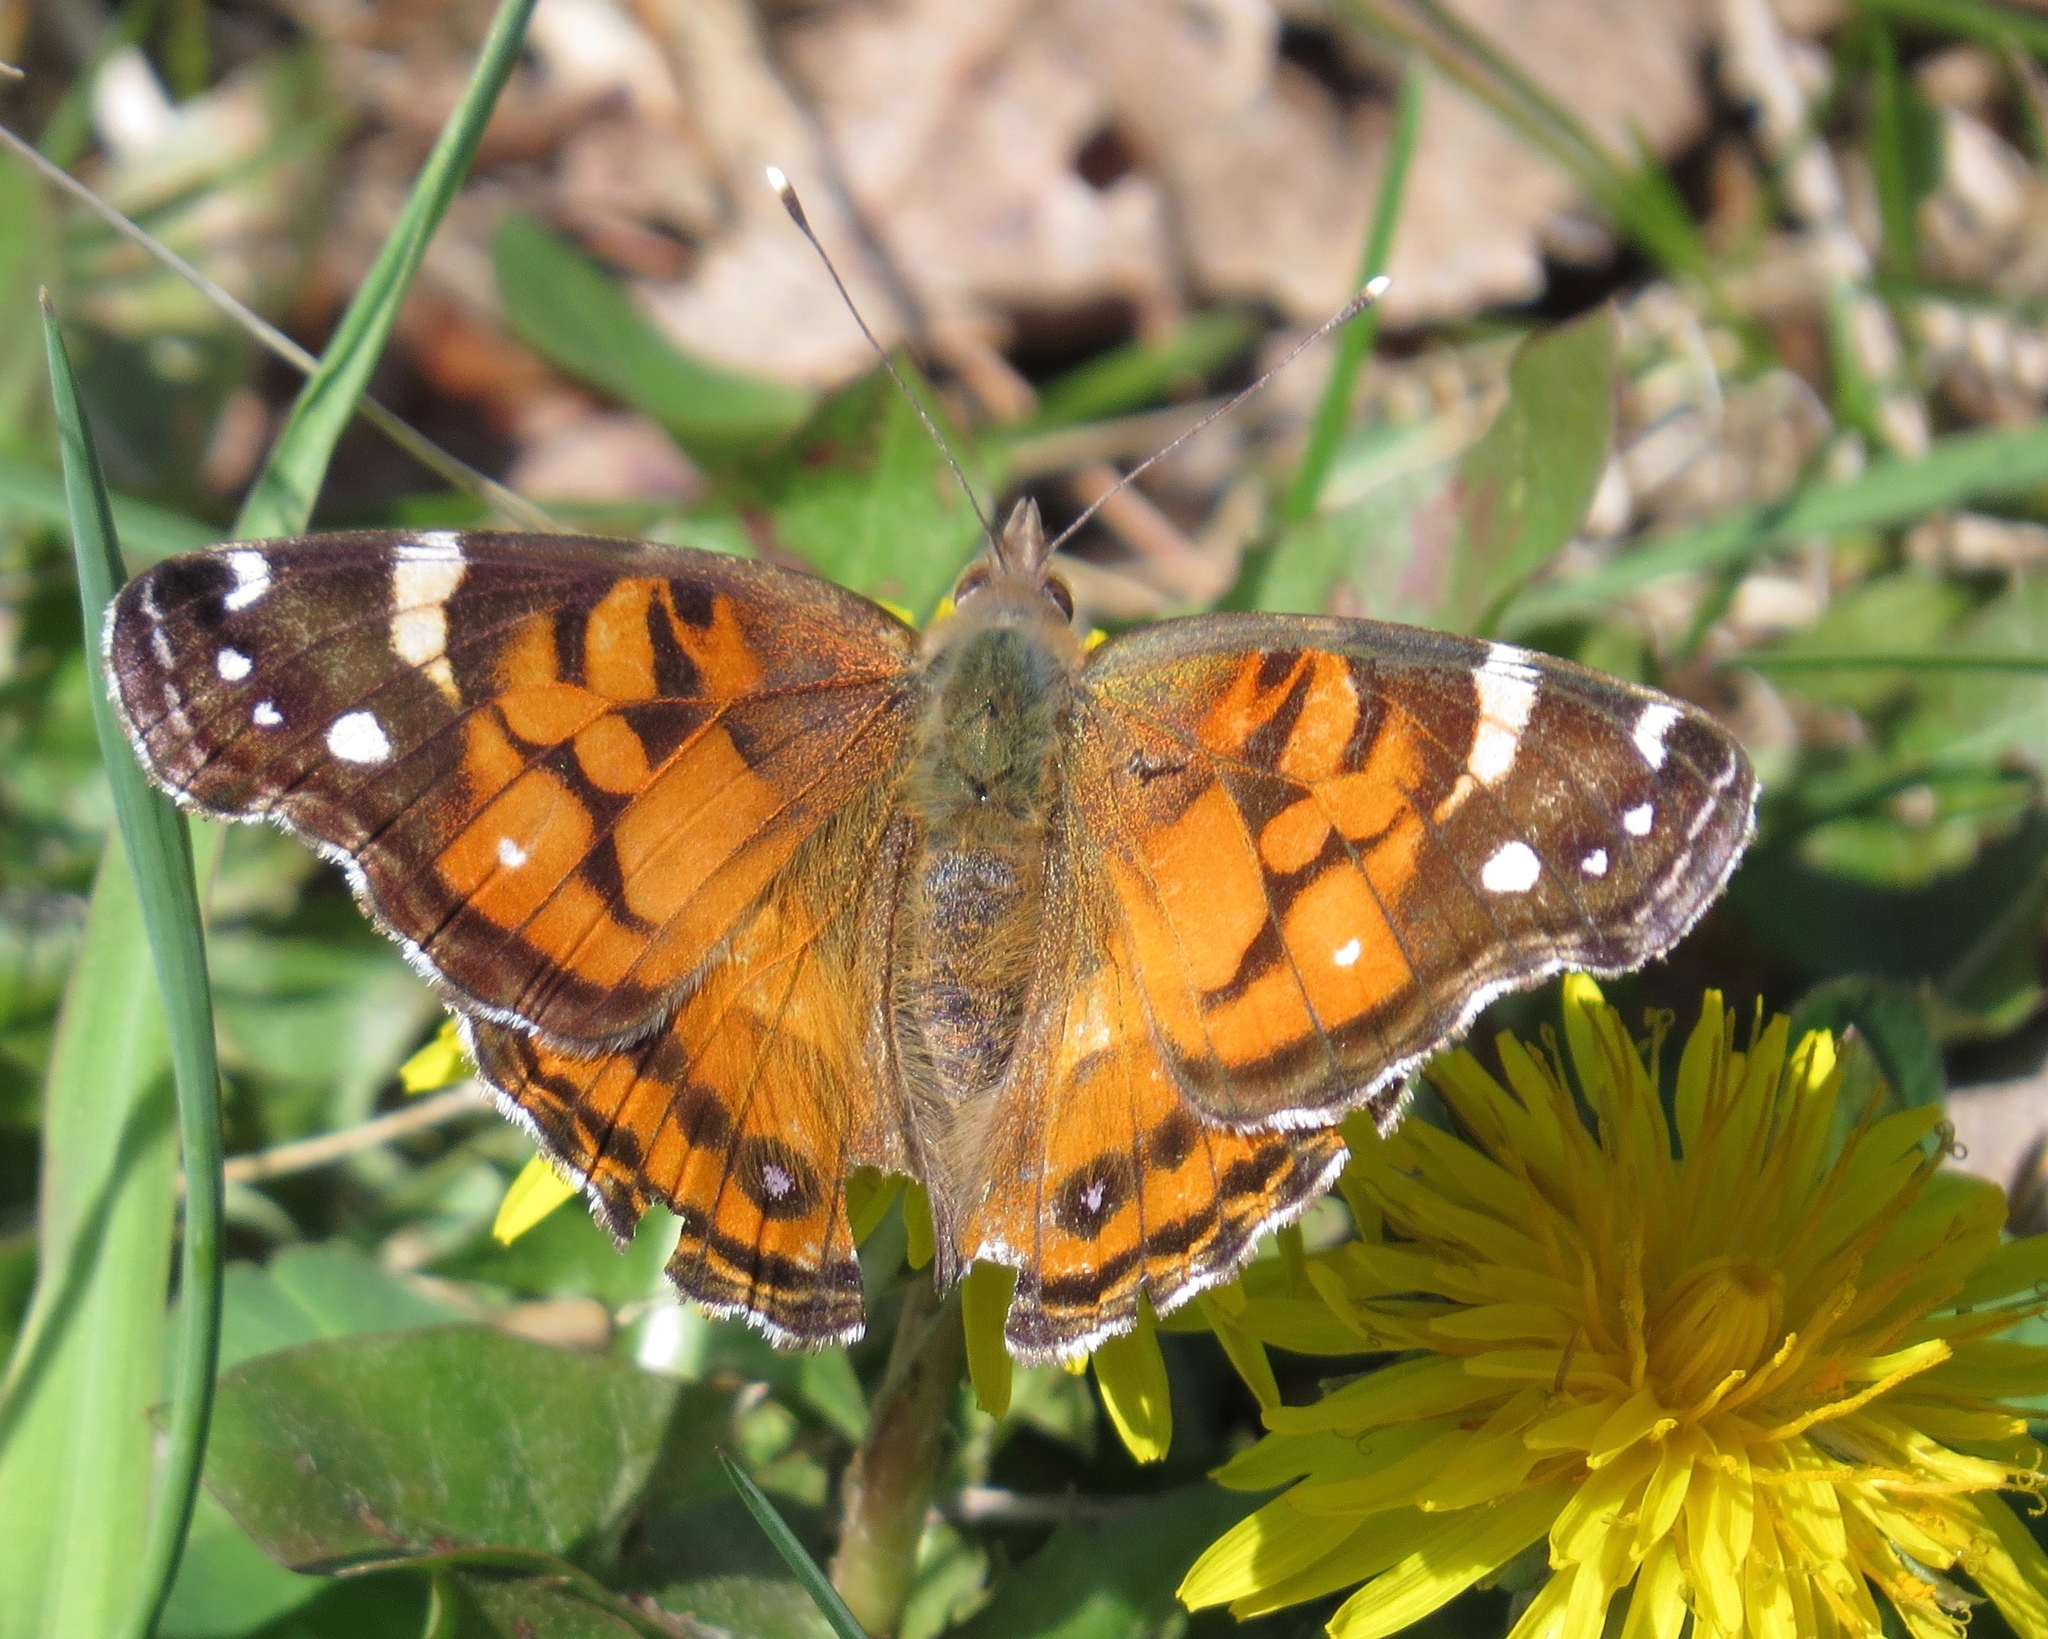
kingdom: Animalia
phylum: Arthropoda
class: Insecta
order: Lepidoptera
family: Nymphalidae
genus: Vanessa
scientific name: Vanessa virginiensis
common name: American lady
